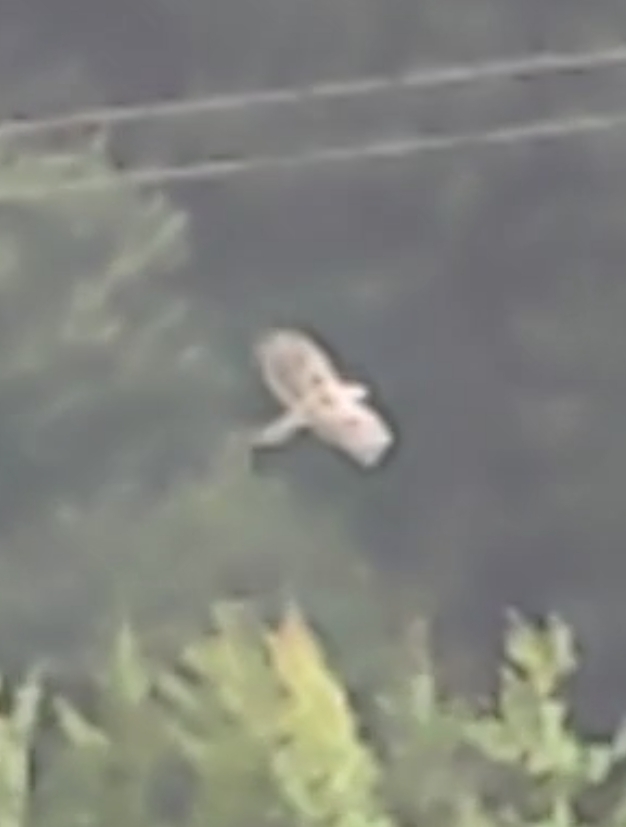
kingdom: Animalia
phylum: Chordata
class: Aves
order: Accipitriformes
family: Accipitridae
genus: Buteo
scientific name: Buteo buteo
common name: Common buzzard
